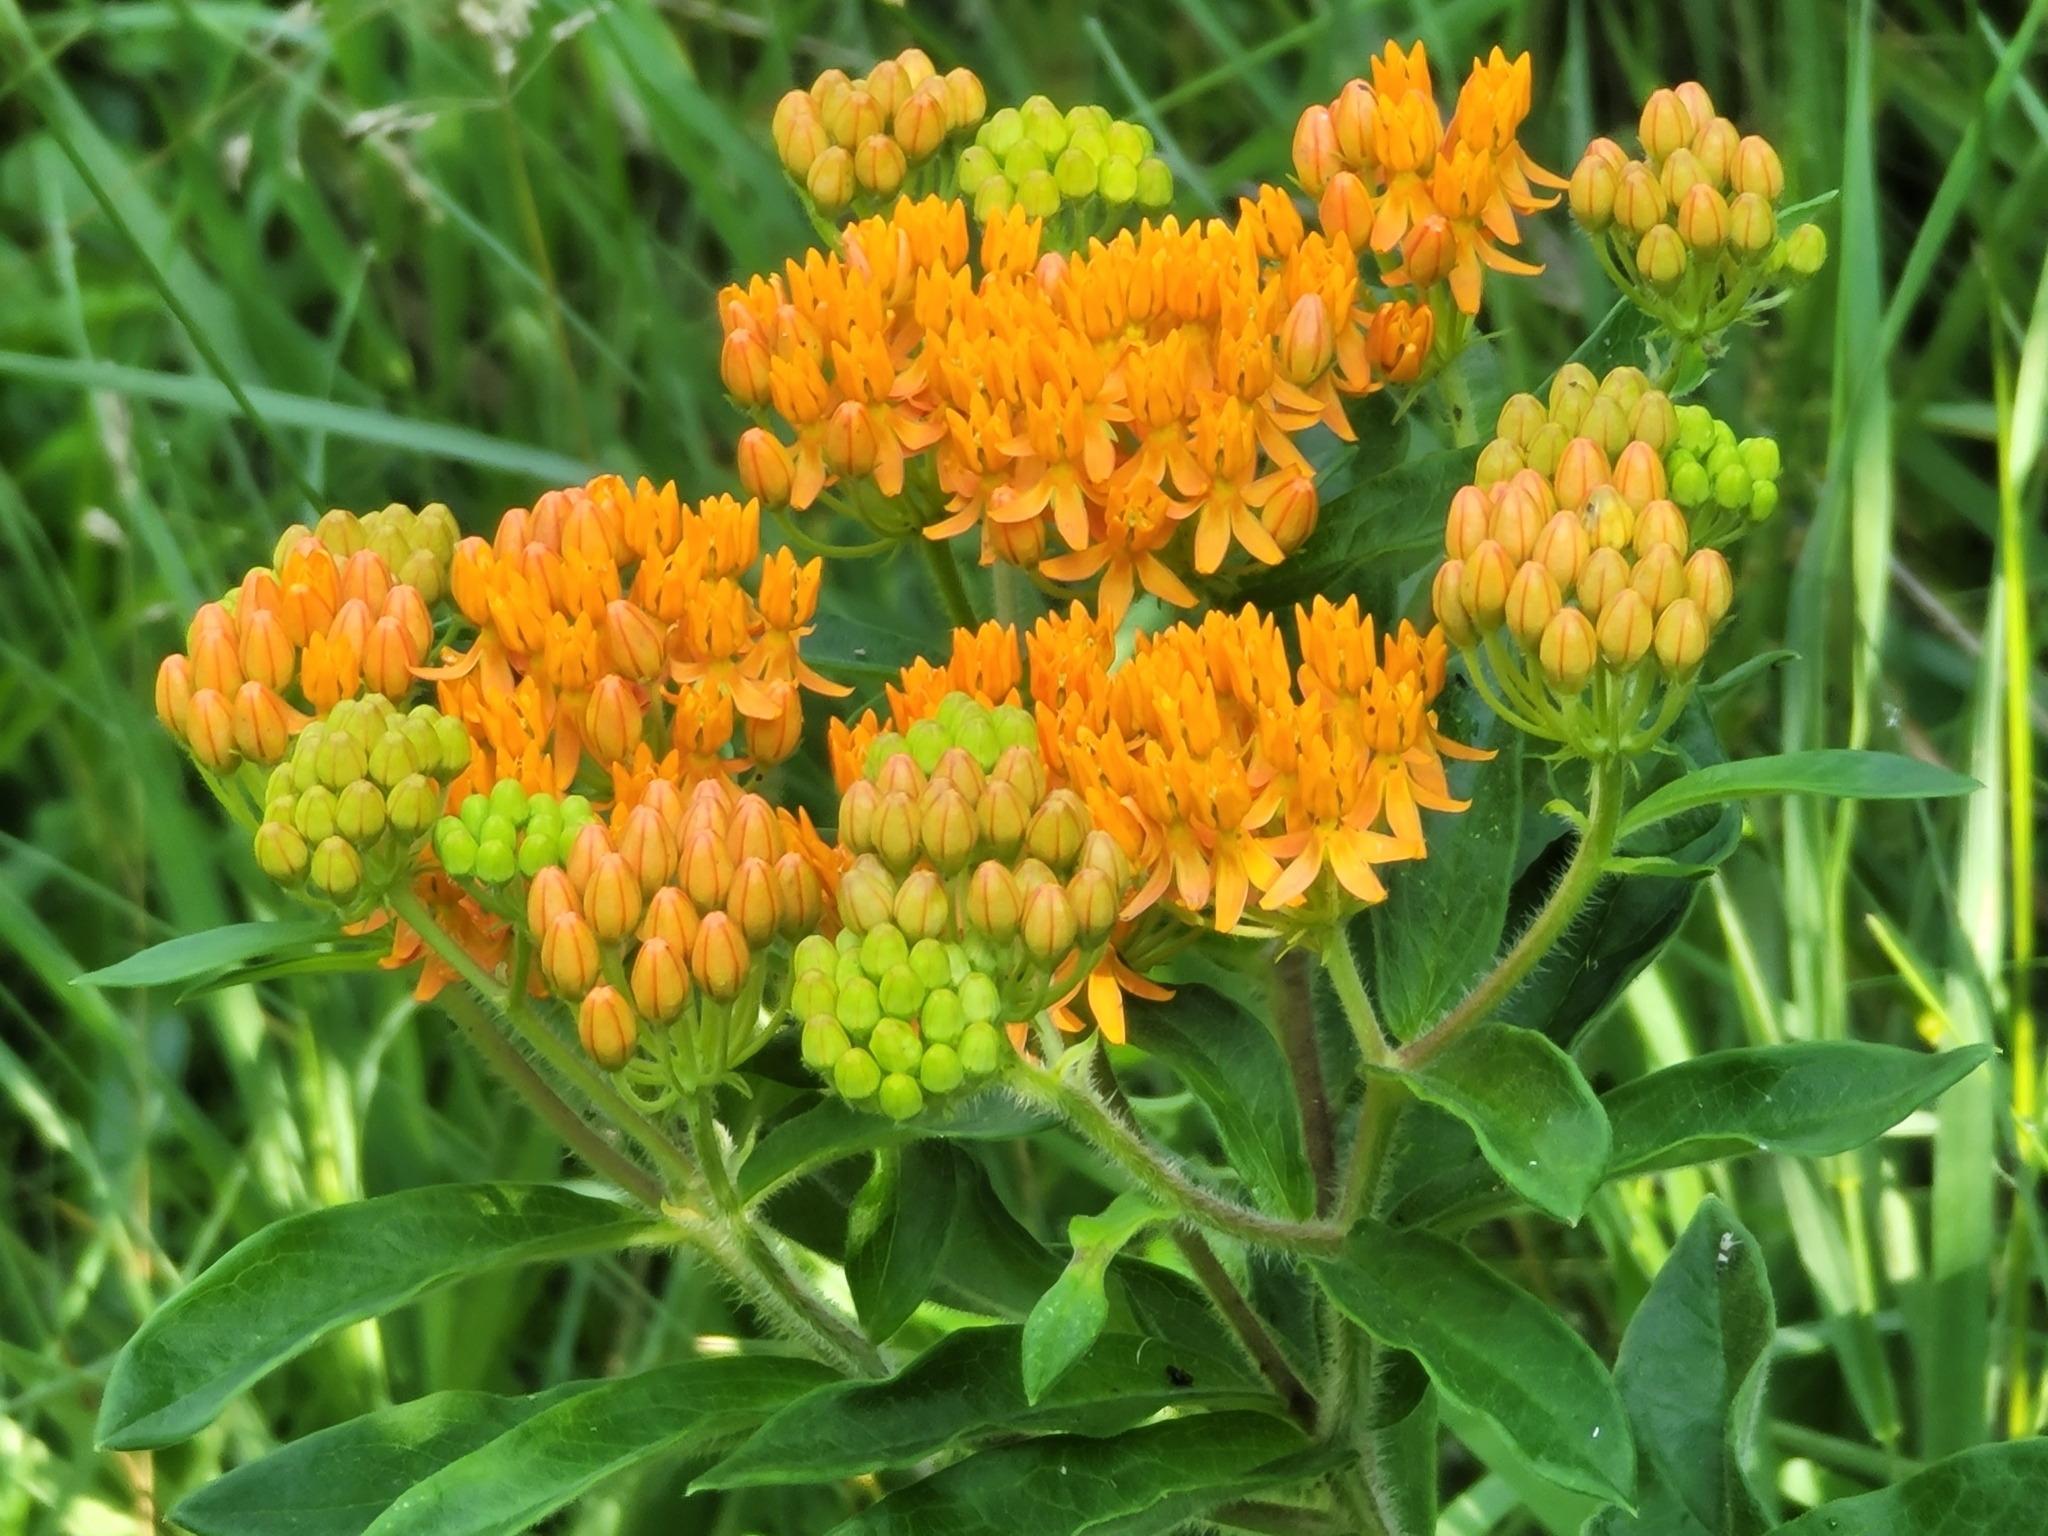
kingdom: Plantae
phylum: Tracheophyta
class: Magnoliopsida
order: Gentianales
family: Apocynaceae
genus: Asclepias
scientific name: Asclepias tuberosa
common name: Butterfly milkweed
